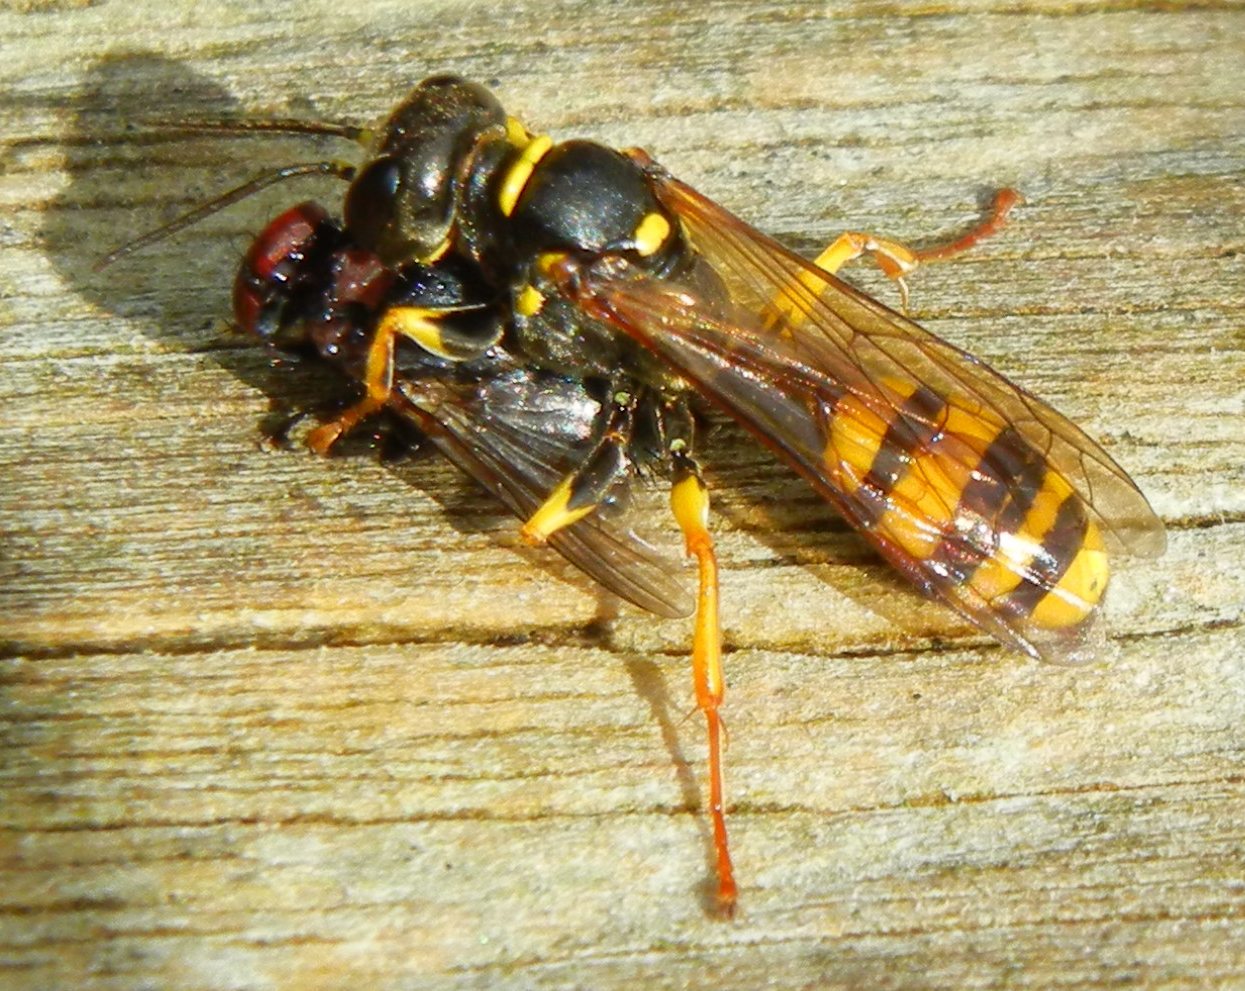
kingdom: Animalia
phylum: Arthropoda
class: Insecta
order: Hymenoptera
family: Crabronidae
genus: Mellinus
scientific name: Mellinus arvensis
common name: Field digger wasp
